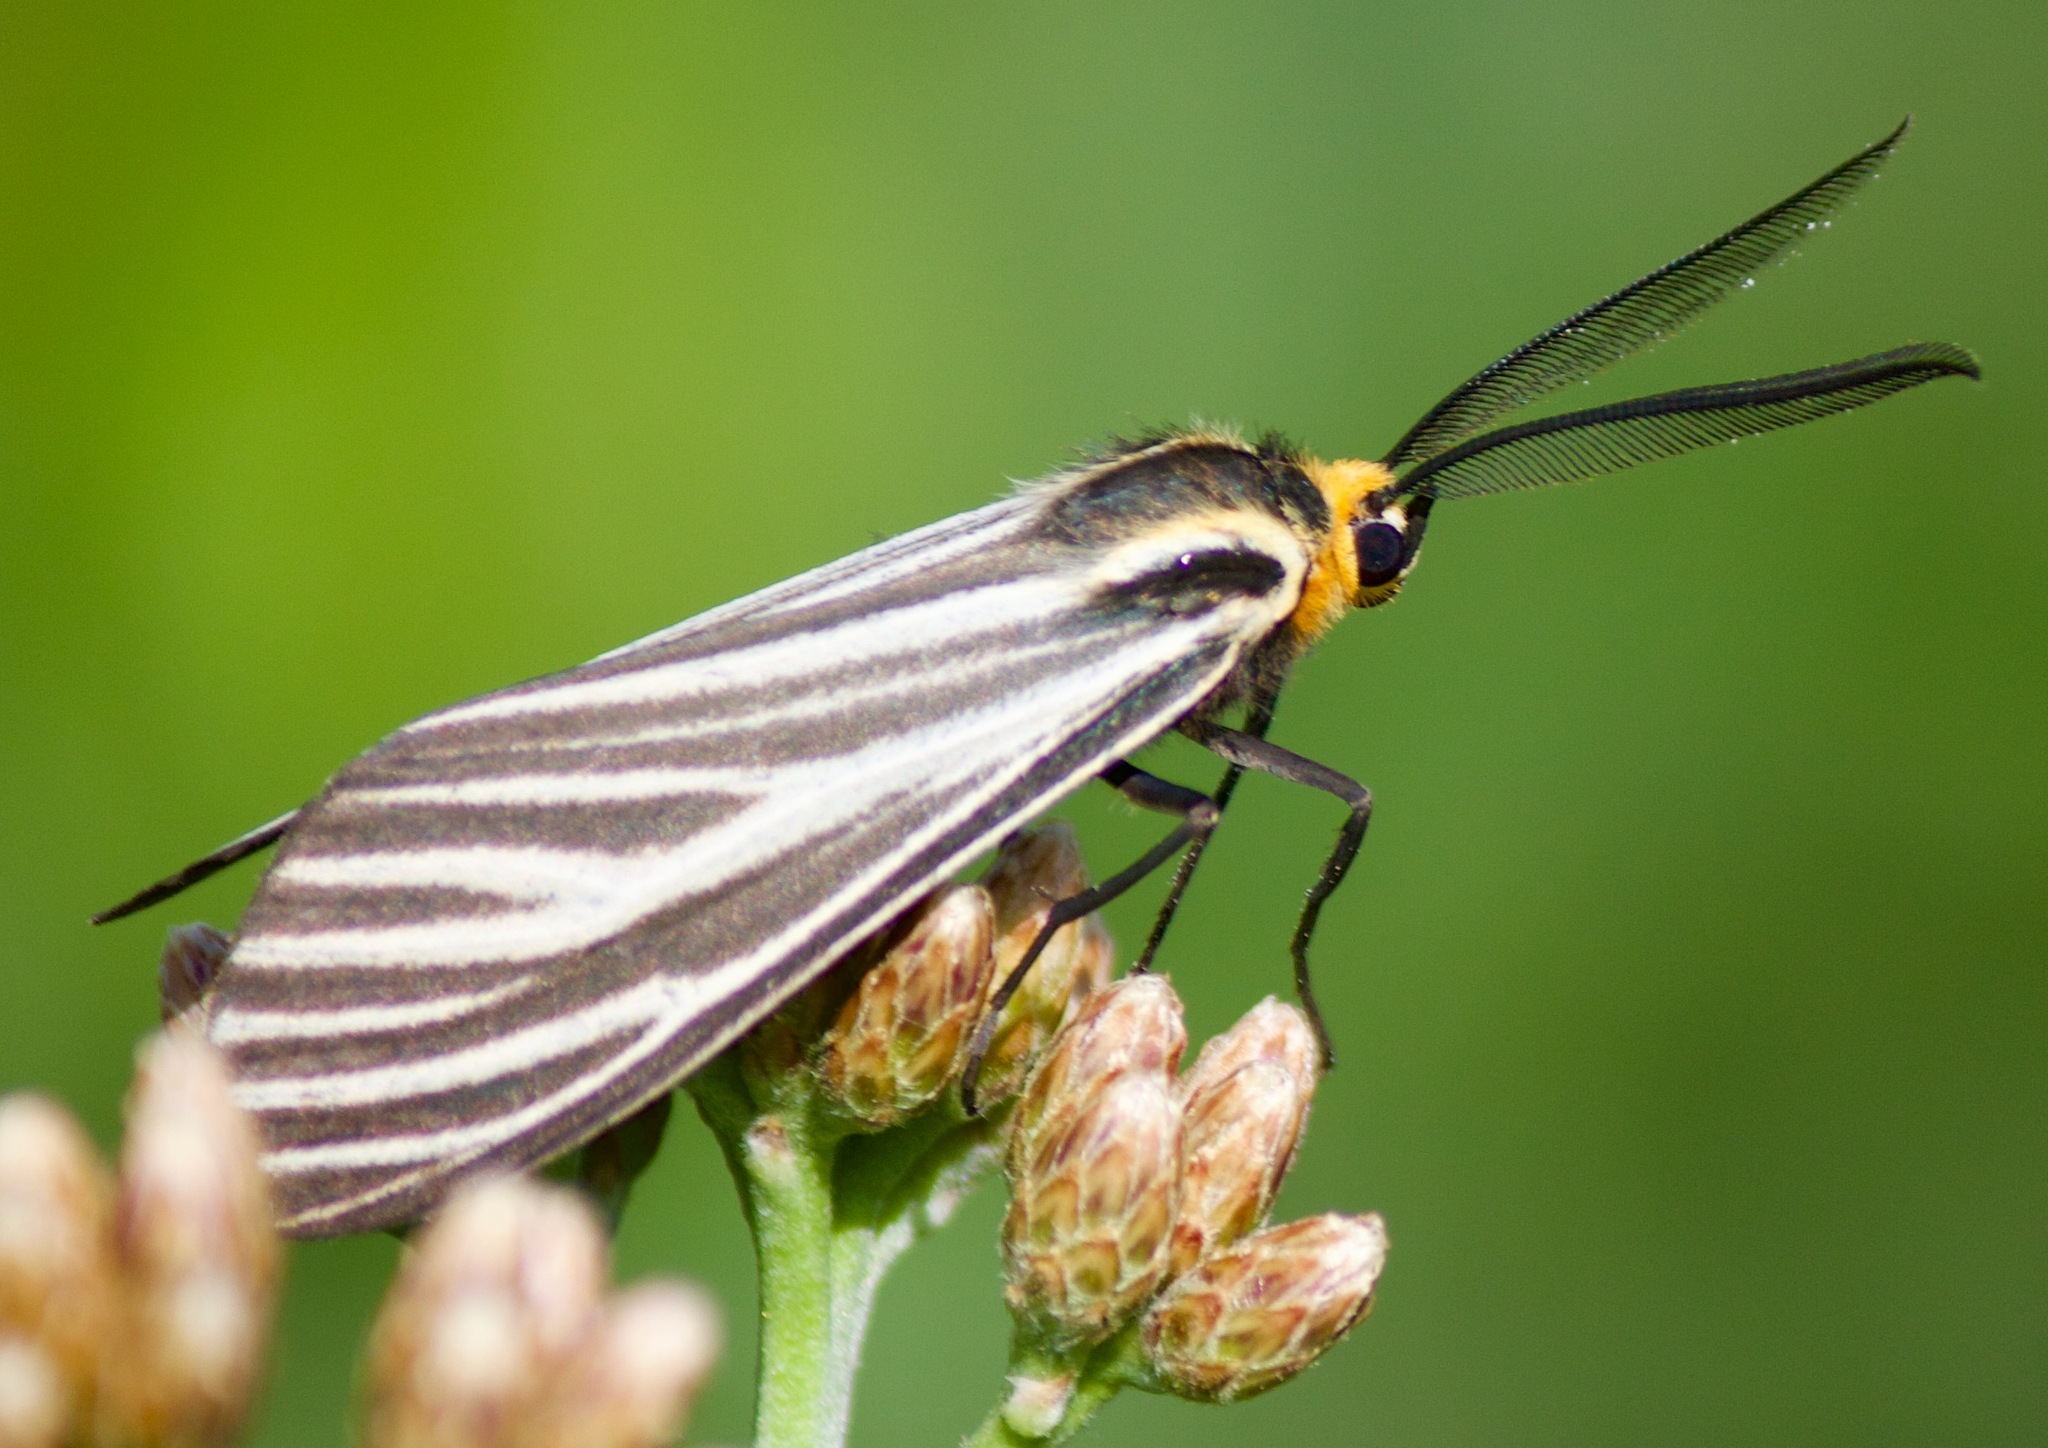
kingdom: Animalia
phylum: Arthropoda
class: Insecta
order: Lepidoptera
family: Erebidae
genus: Ctenucha
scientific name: Ctenucha vittigerum
